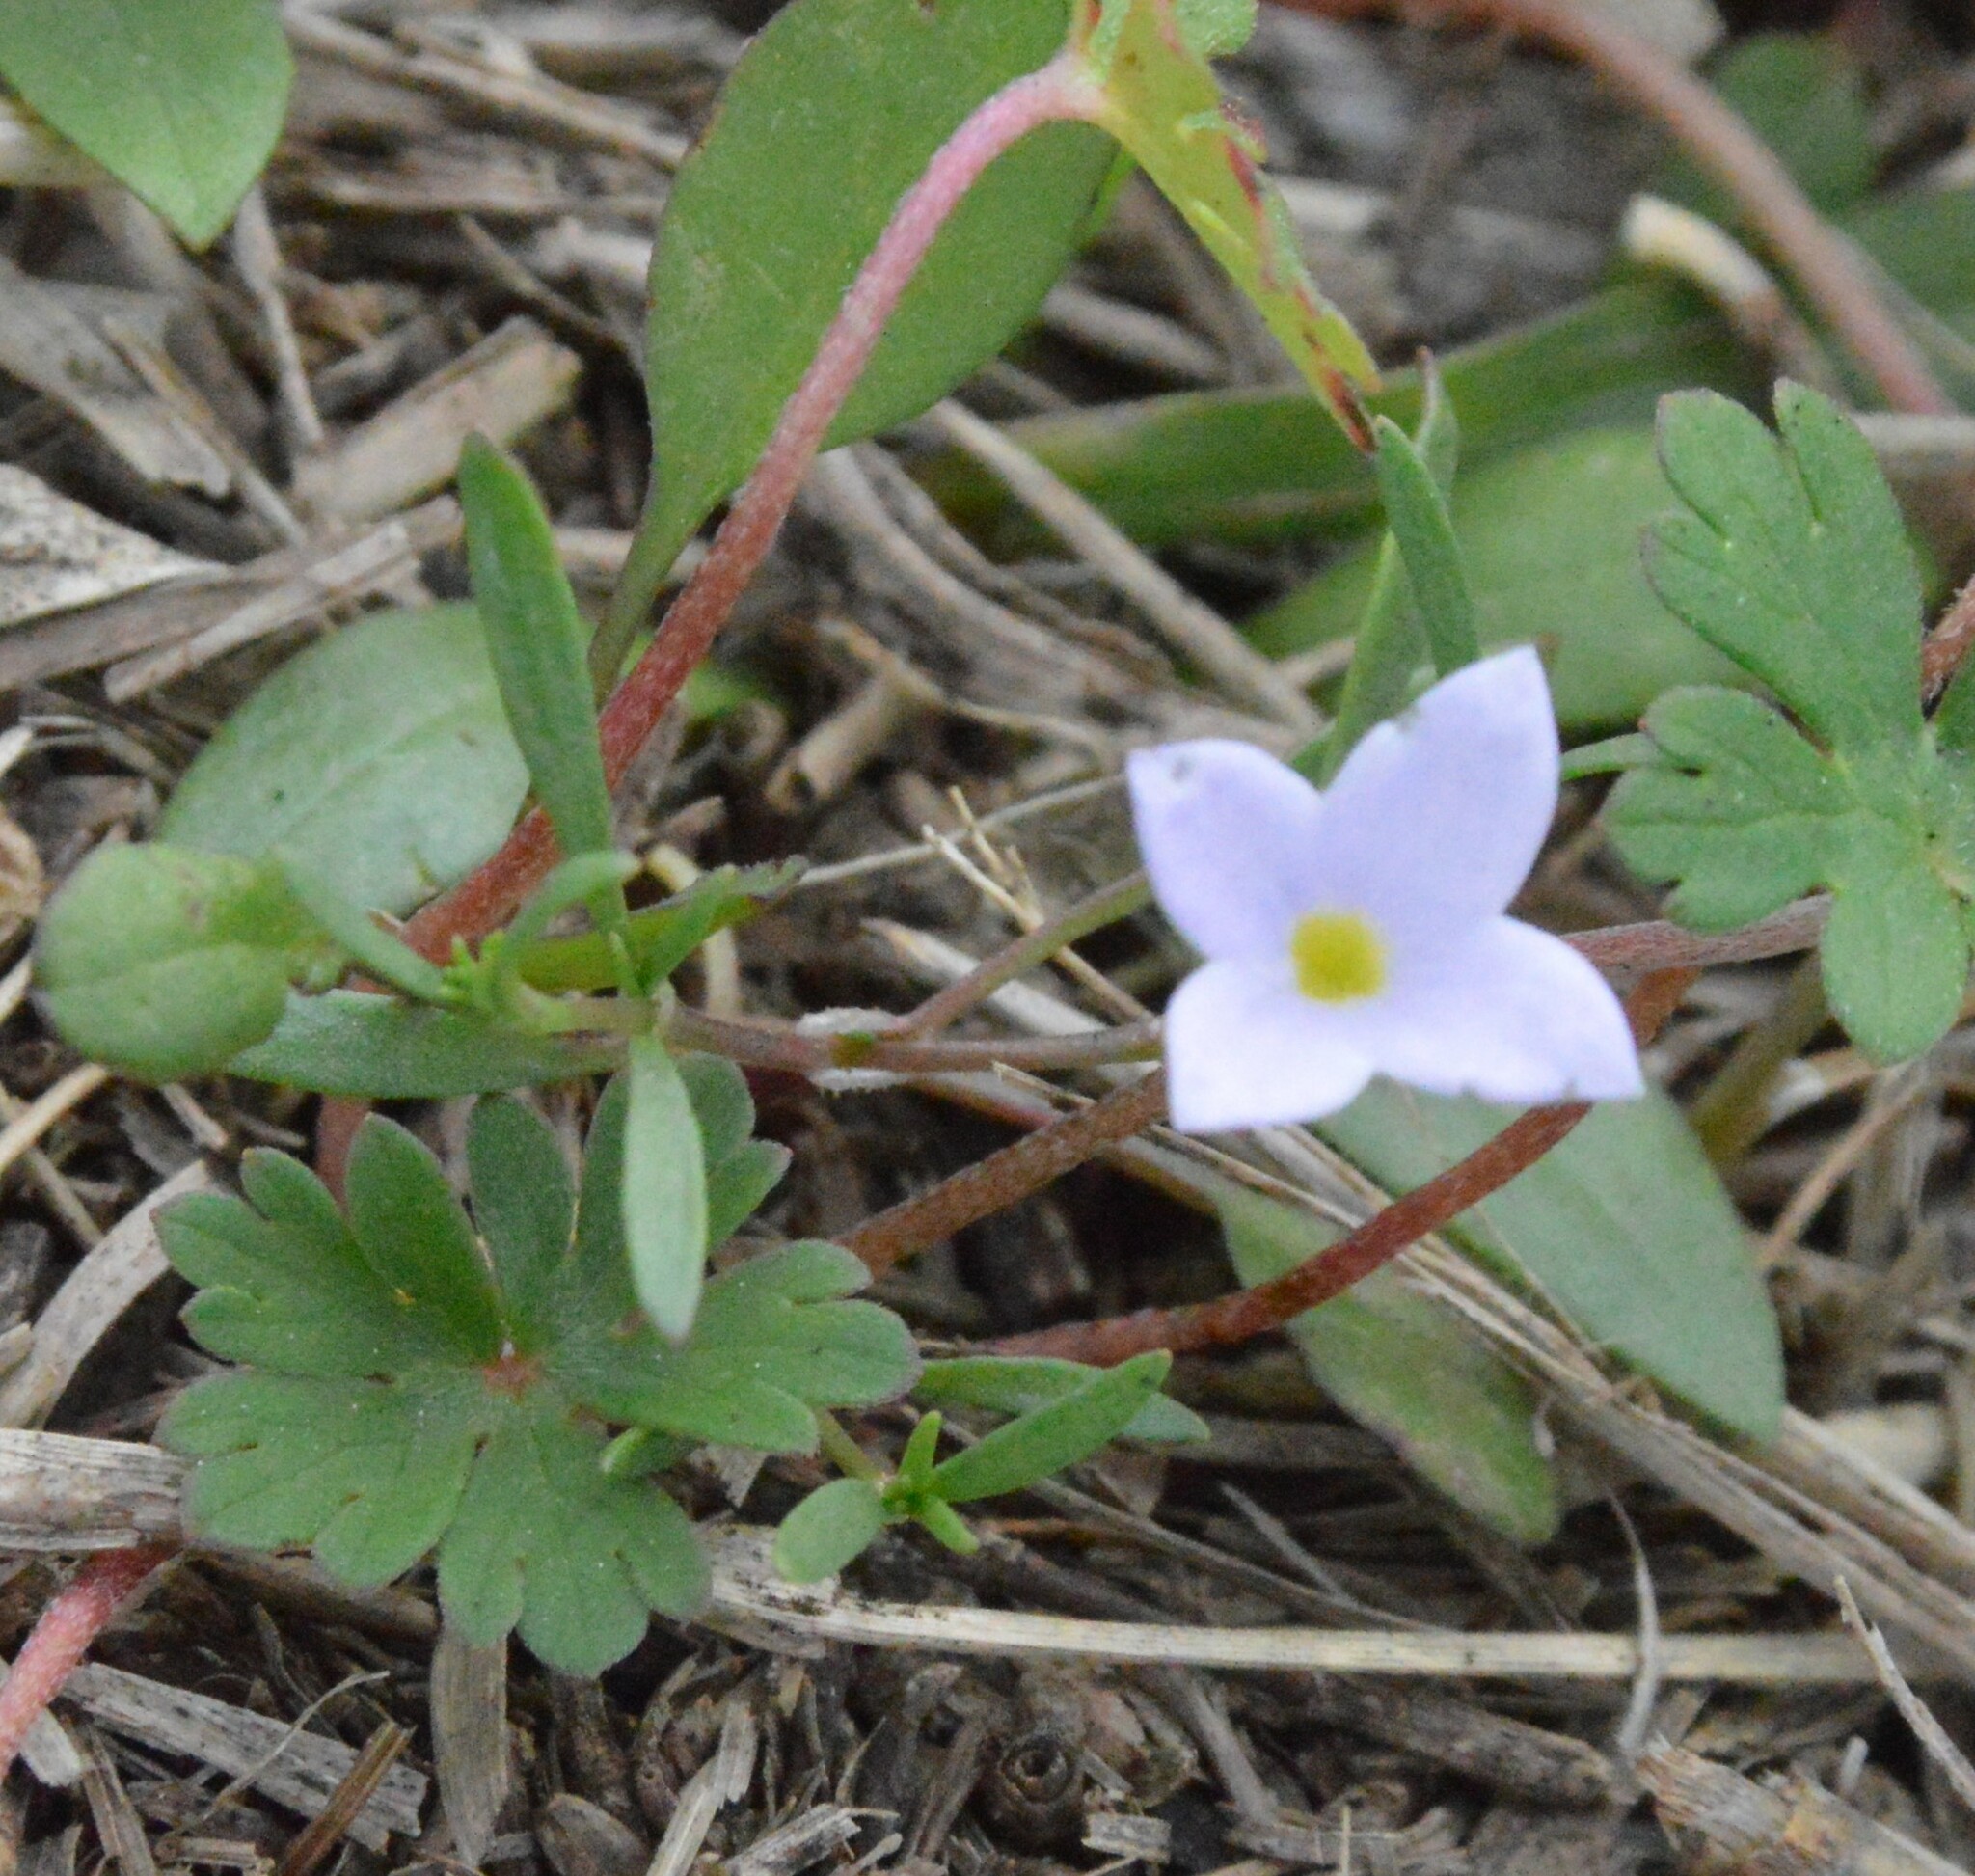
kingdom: Plantae
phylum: Tracheophyta
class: Magnoliopsida
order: Gentianales
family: Rubiaceae
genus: Houstonia
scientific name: Houstonia rosea
